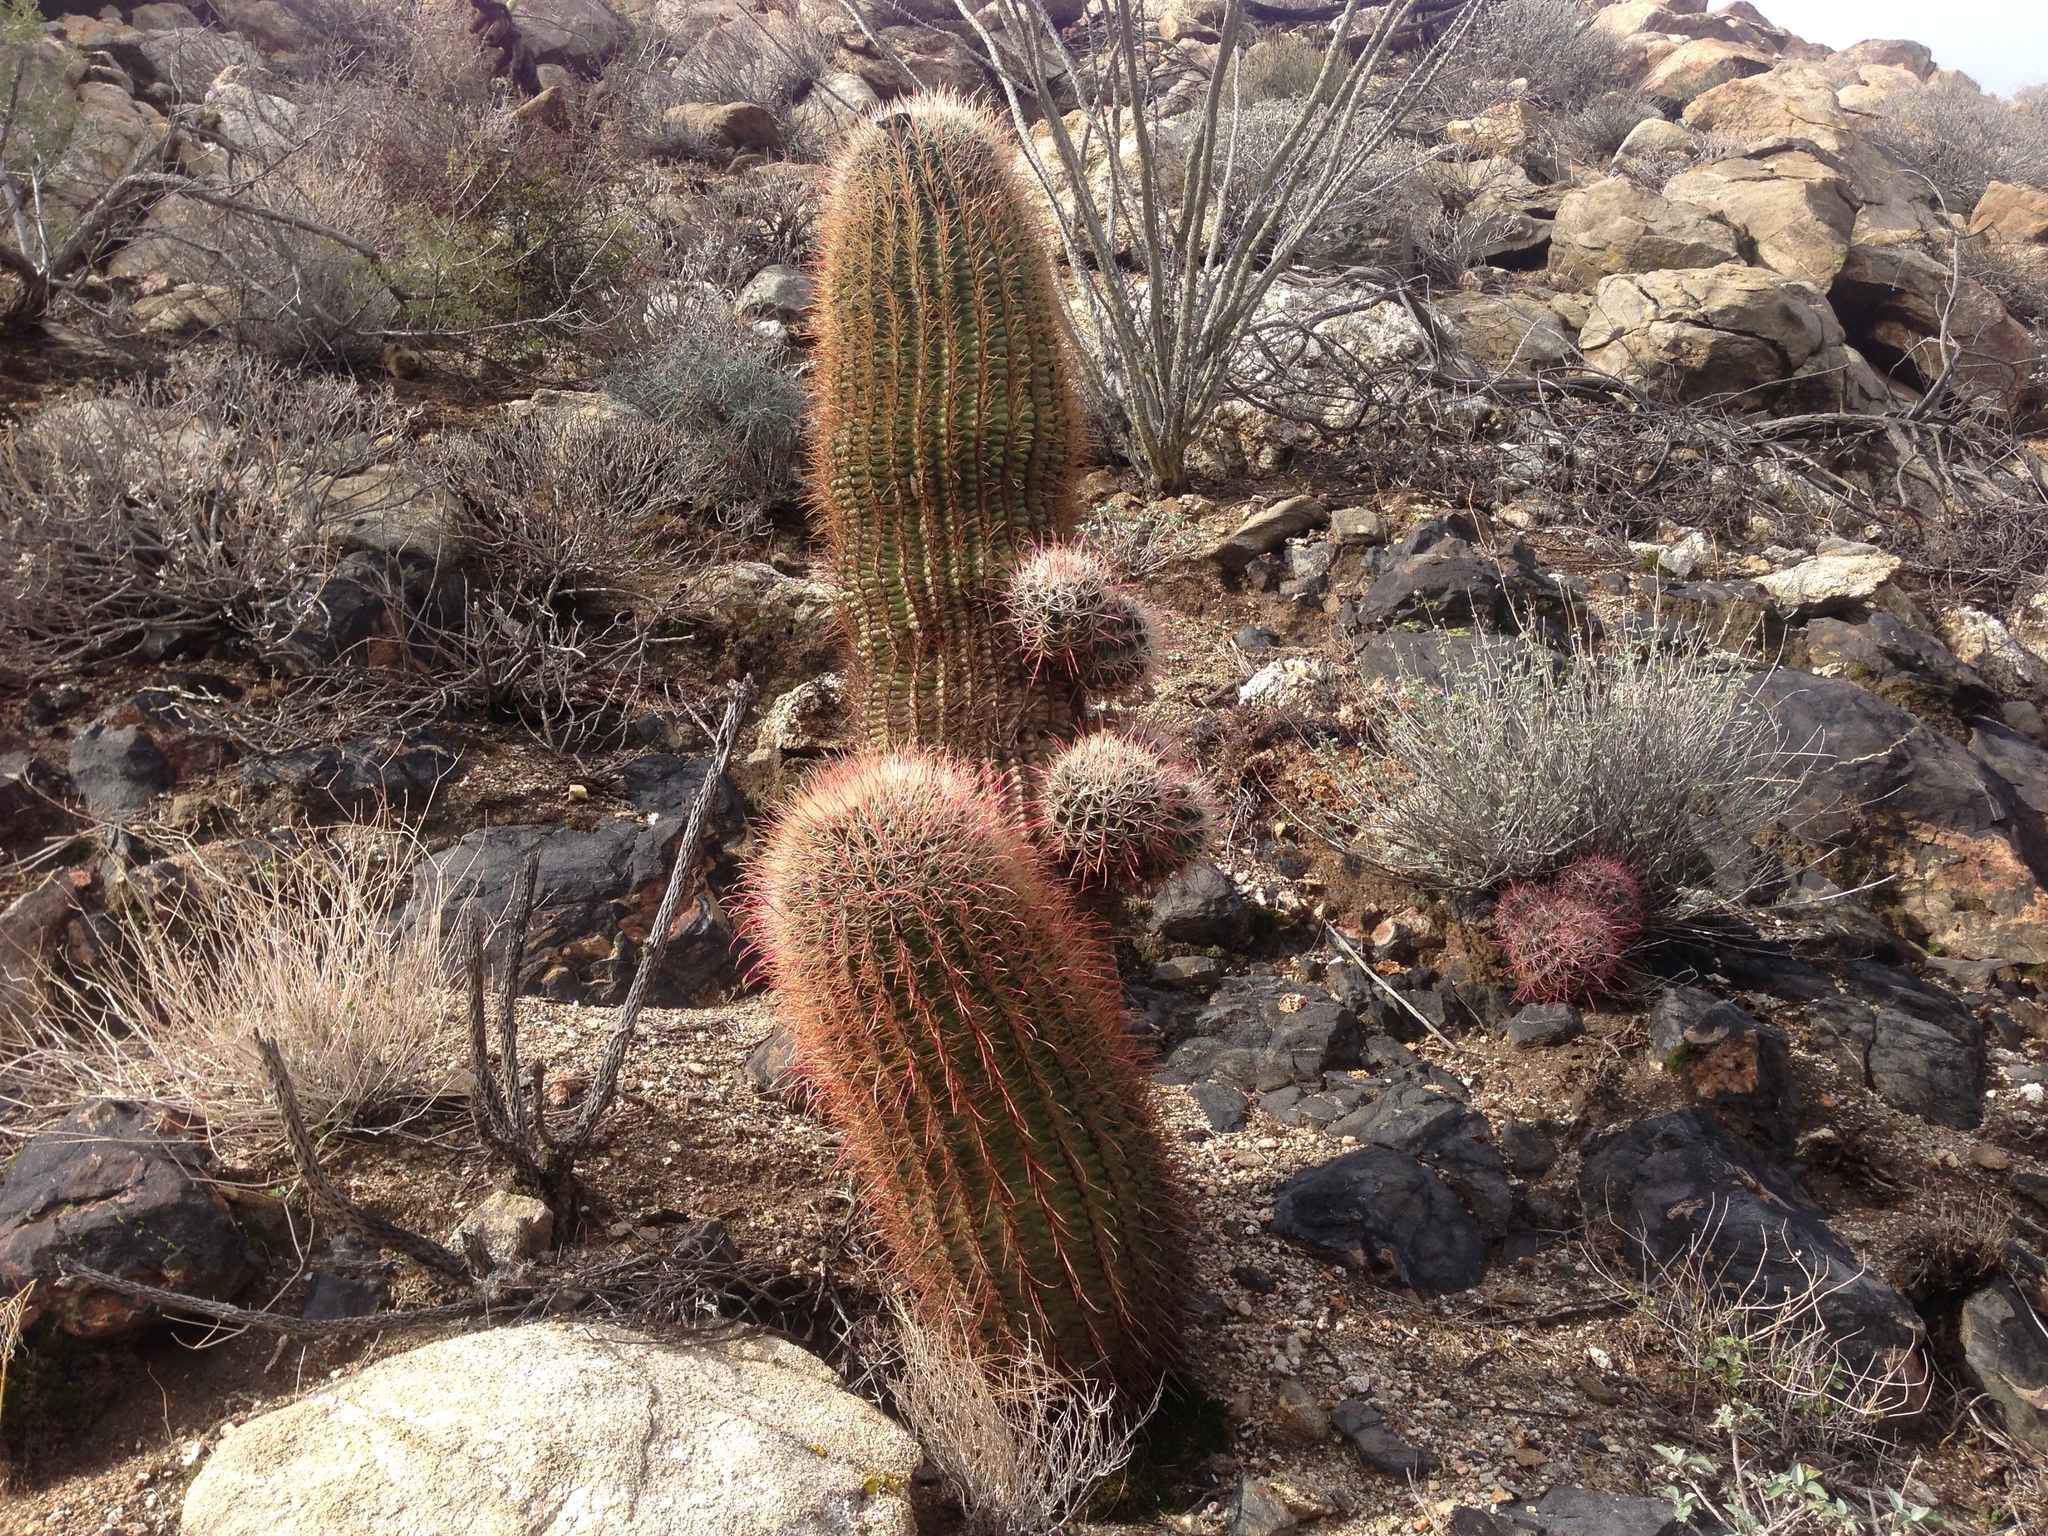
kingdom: Plantae
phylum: Tracheophyta
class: Magnoliopsida
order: Caryophyllales
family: Cactaceae
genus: Ferocactus
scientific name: Ferocactus cylindraceus
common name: California barrel cactus
